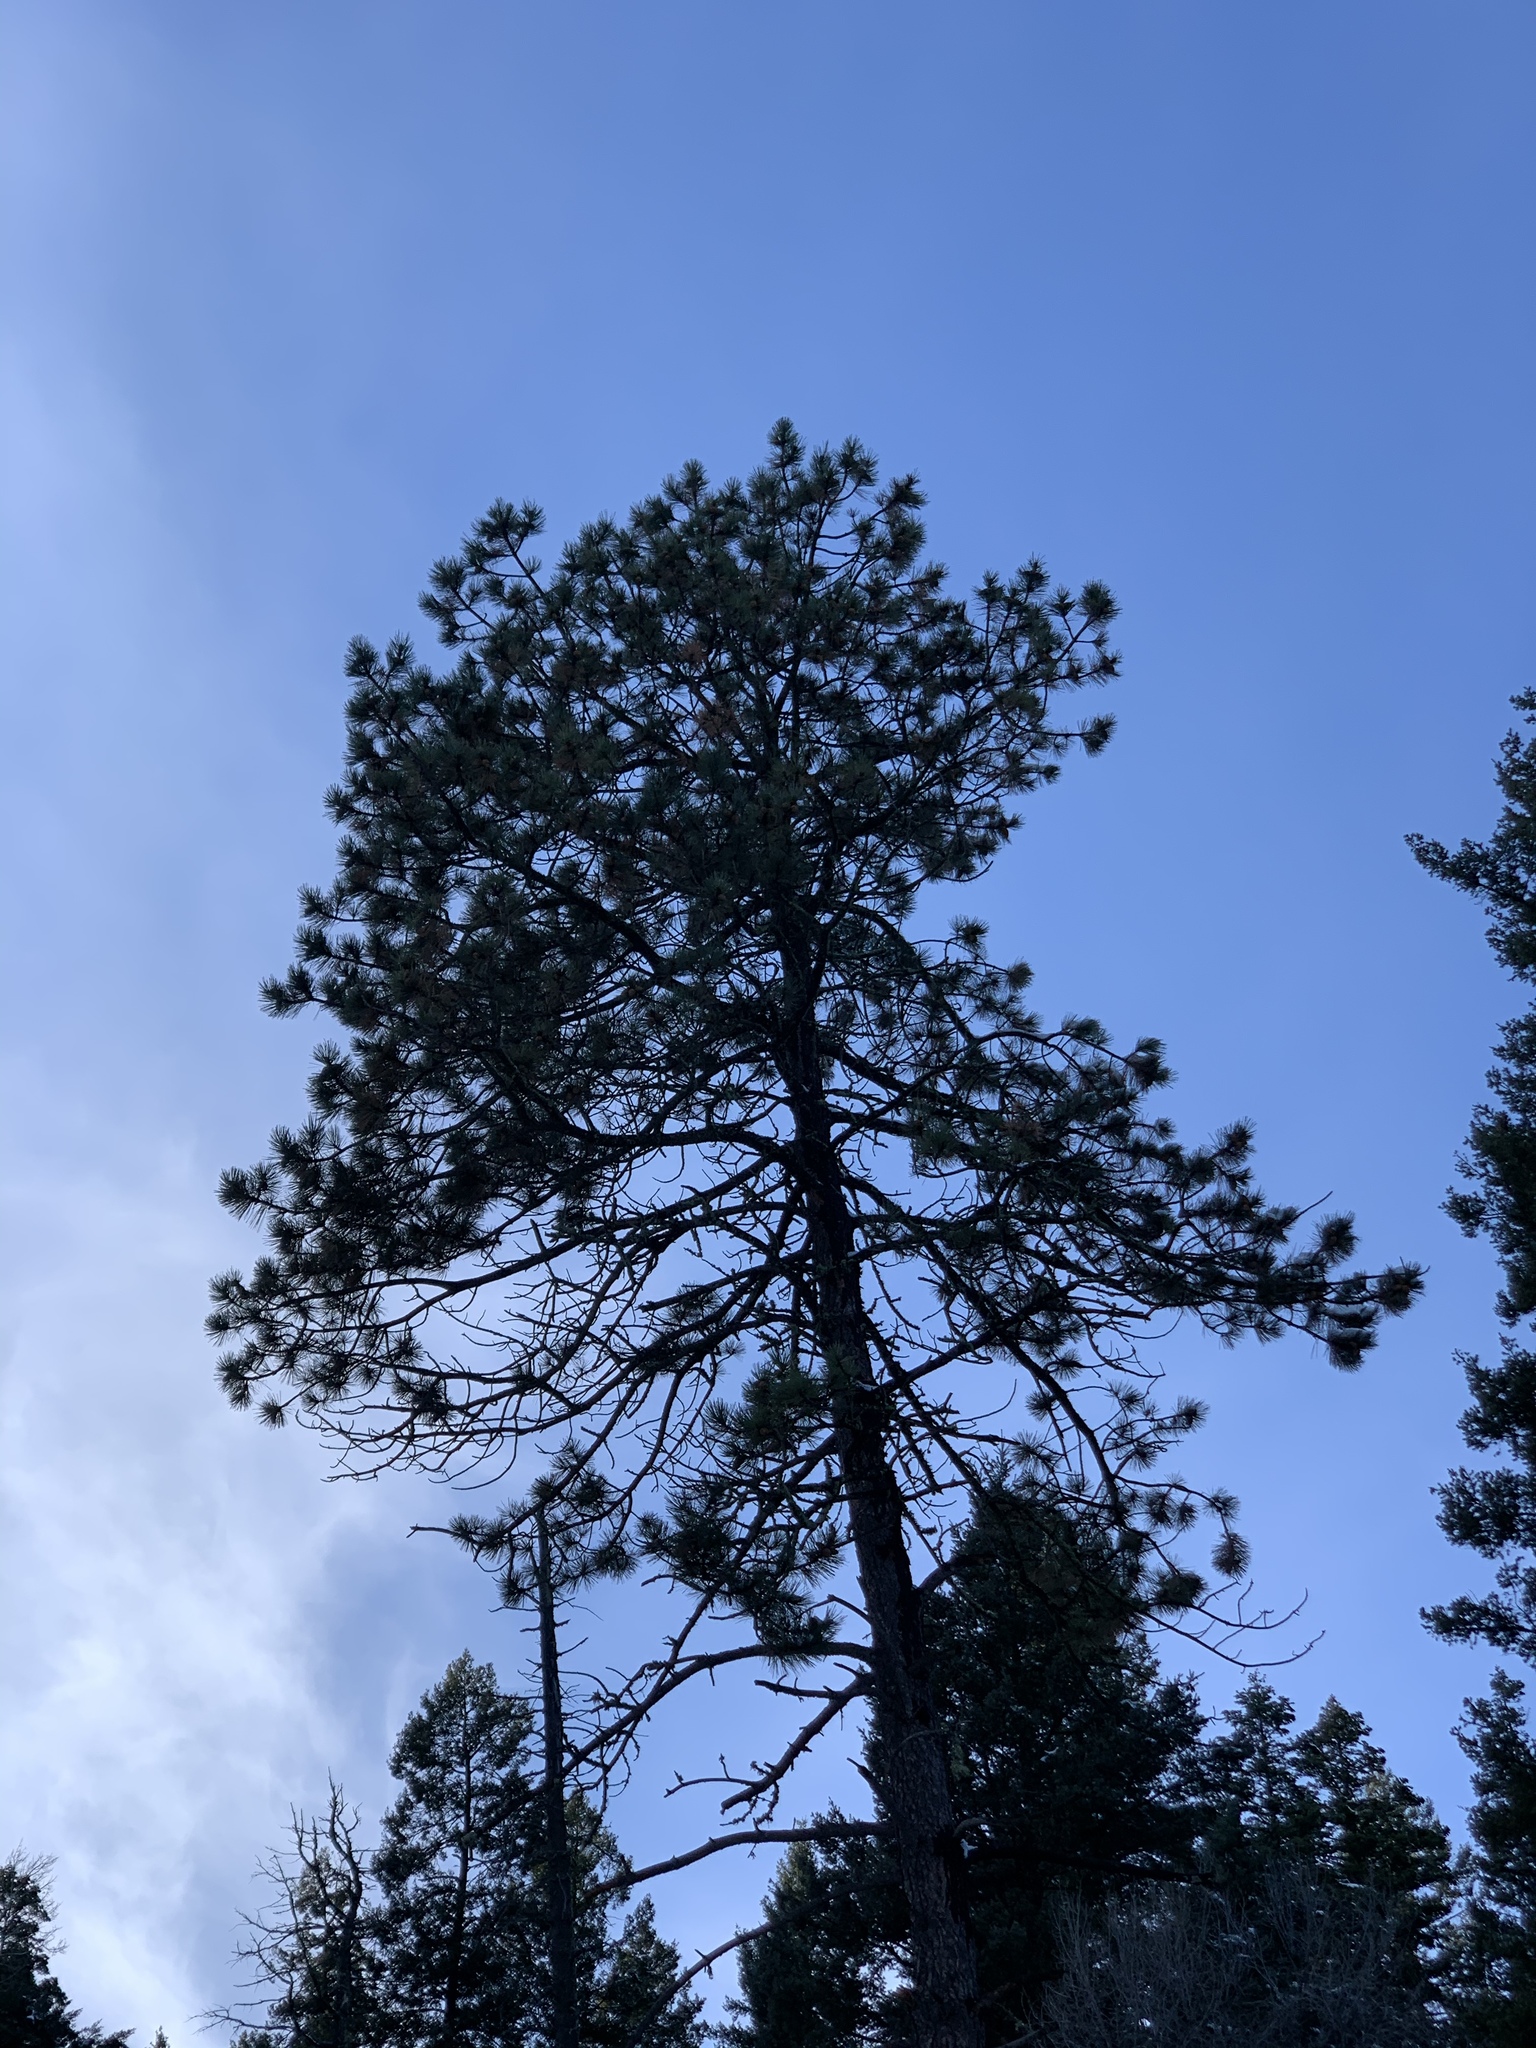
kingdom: Plantae
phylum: Tracheophyta
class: Pinopsida
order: Pinales
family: Pinaceae
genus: Pinus
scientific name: Pinus ponderosa
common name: Western yellow-pine
